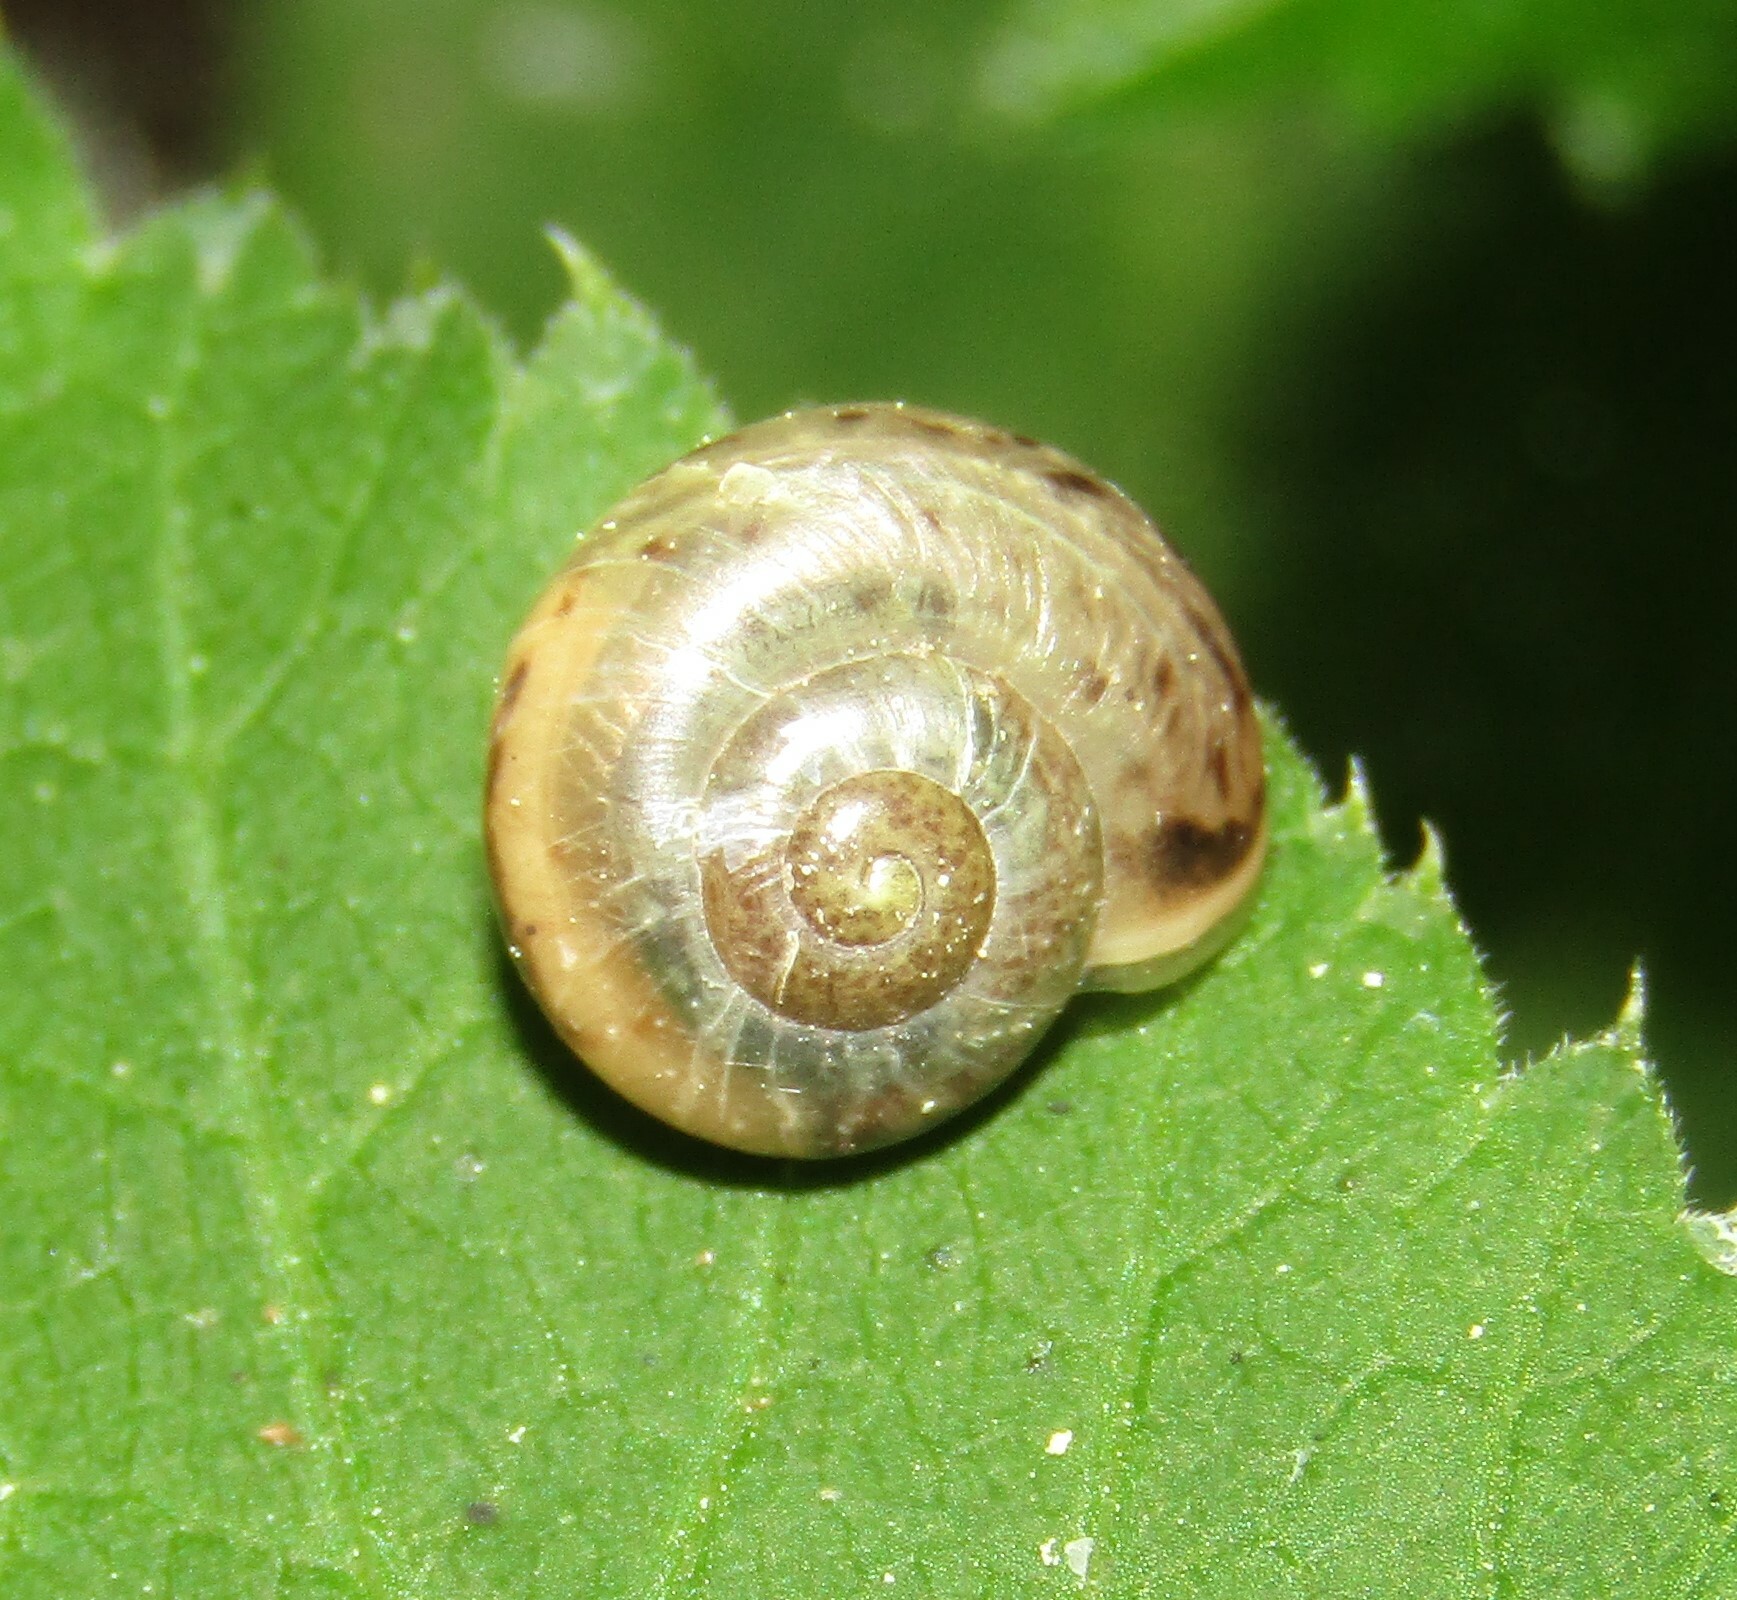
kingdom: Animalia
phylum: Mollusca
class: Gastropoda
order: Stylommatophora
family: Camaenidae
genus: Fruticicola
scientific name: Fruticicola fruticum
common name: Bush snail
